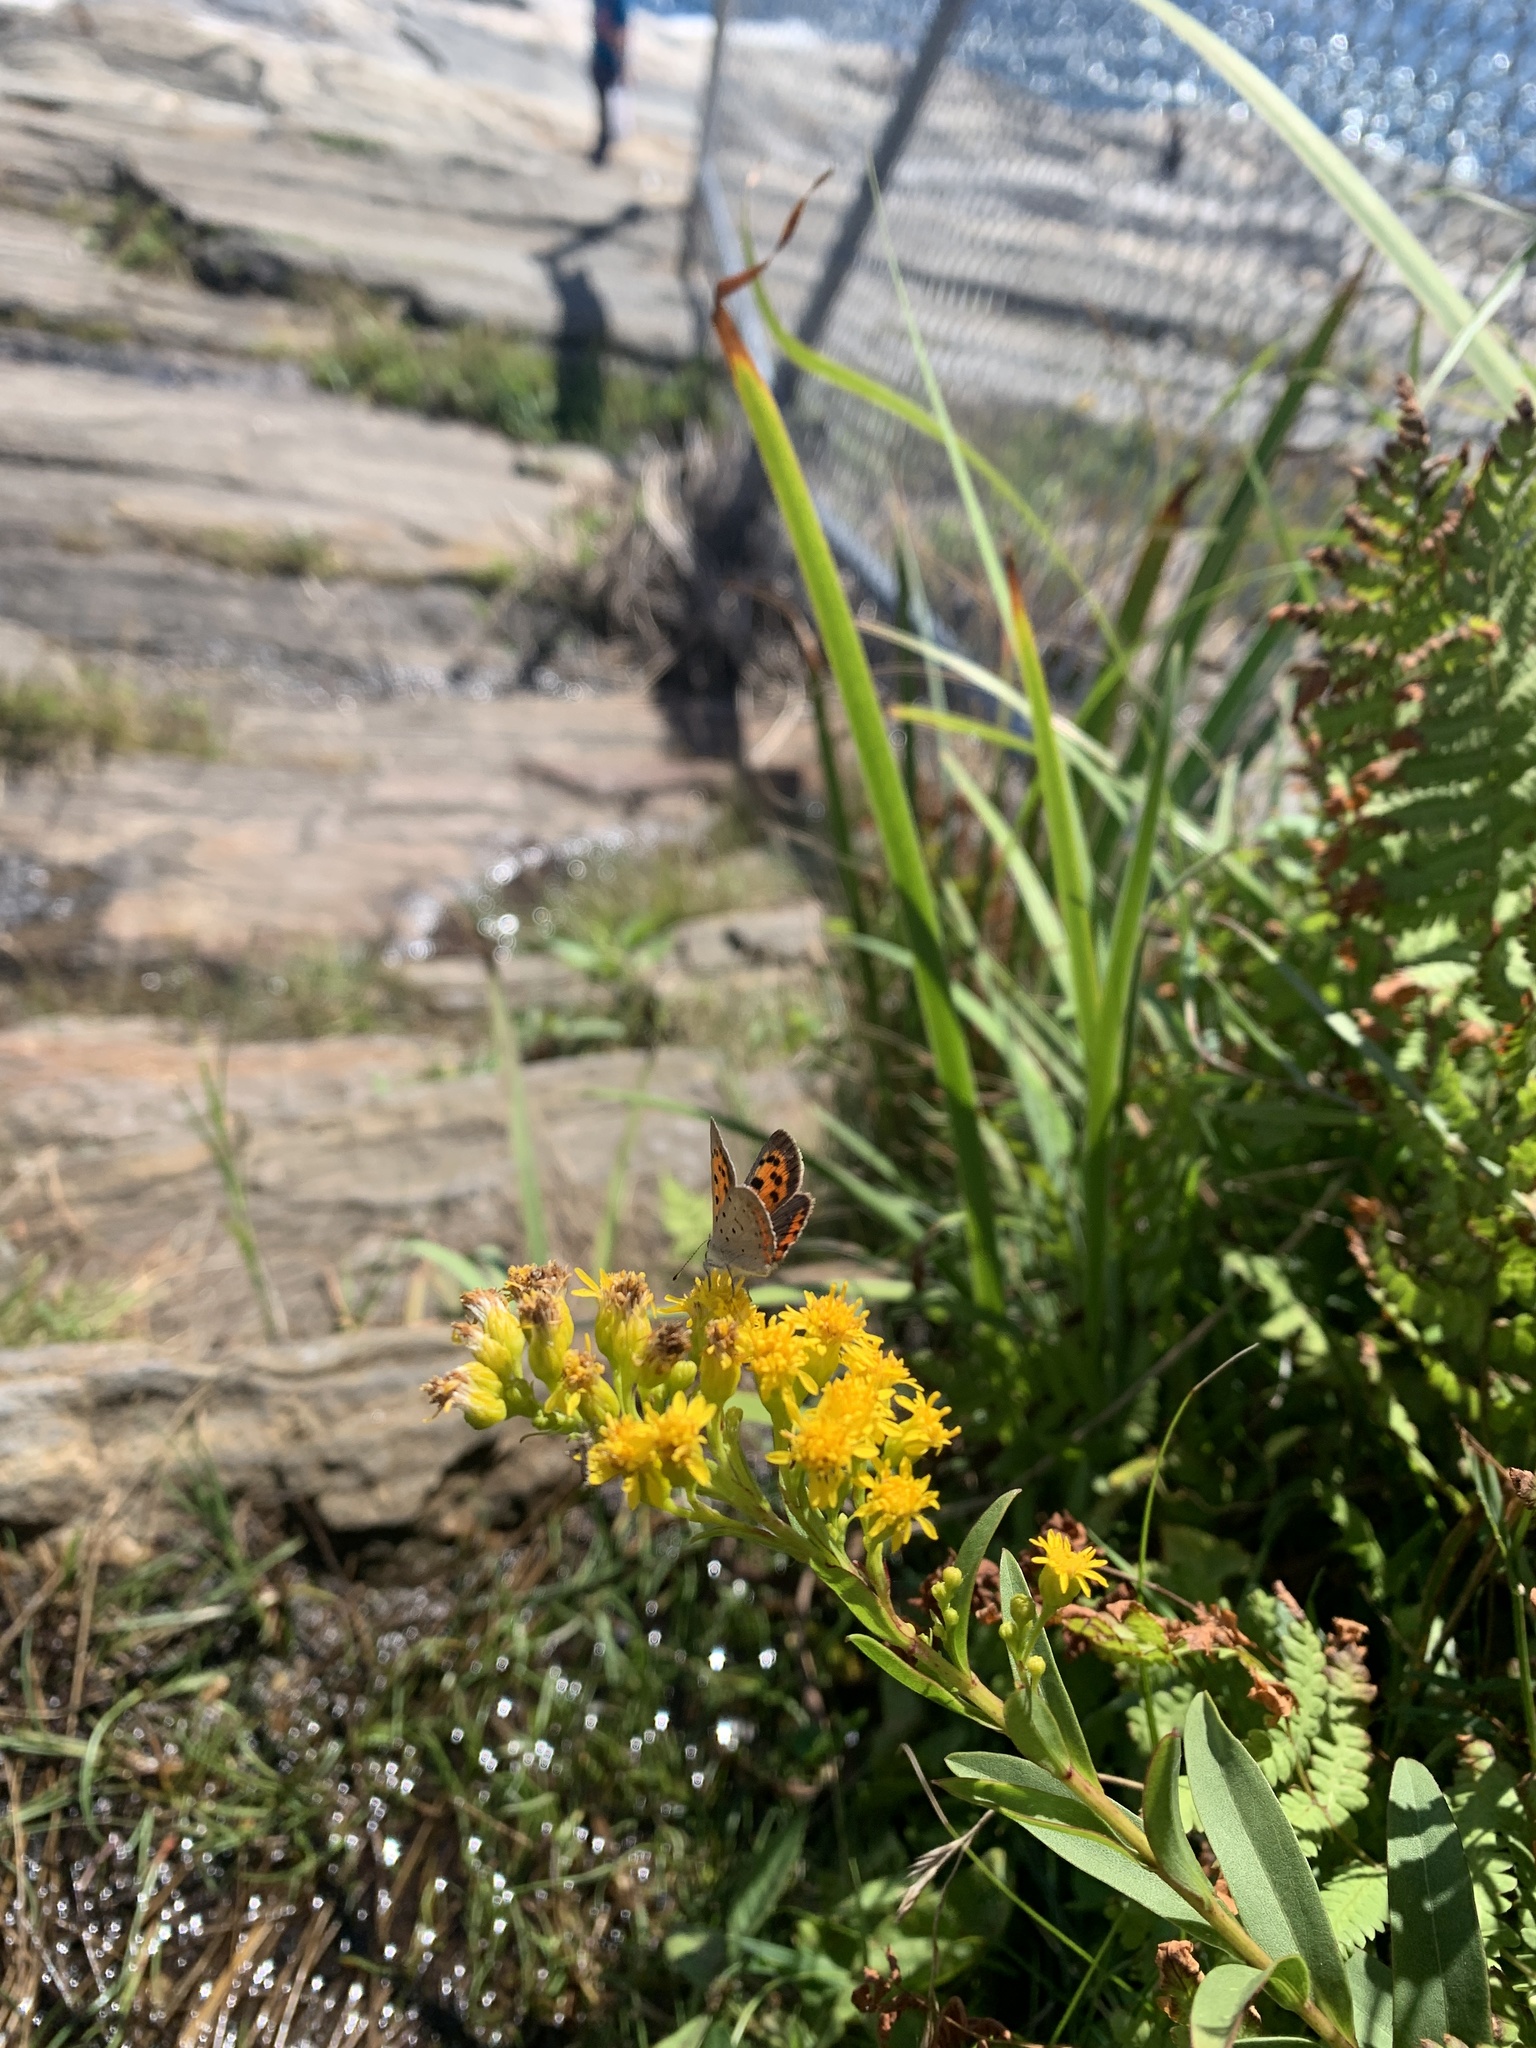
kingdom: Animalia
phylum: Arthropoda
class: Insecta
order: Lepidoptera
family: Lycaenidae
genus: Lycaena
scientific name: Lycaena hypophlaeas
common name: American copper
